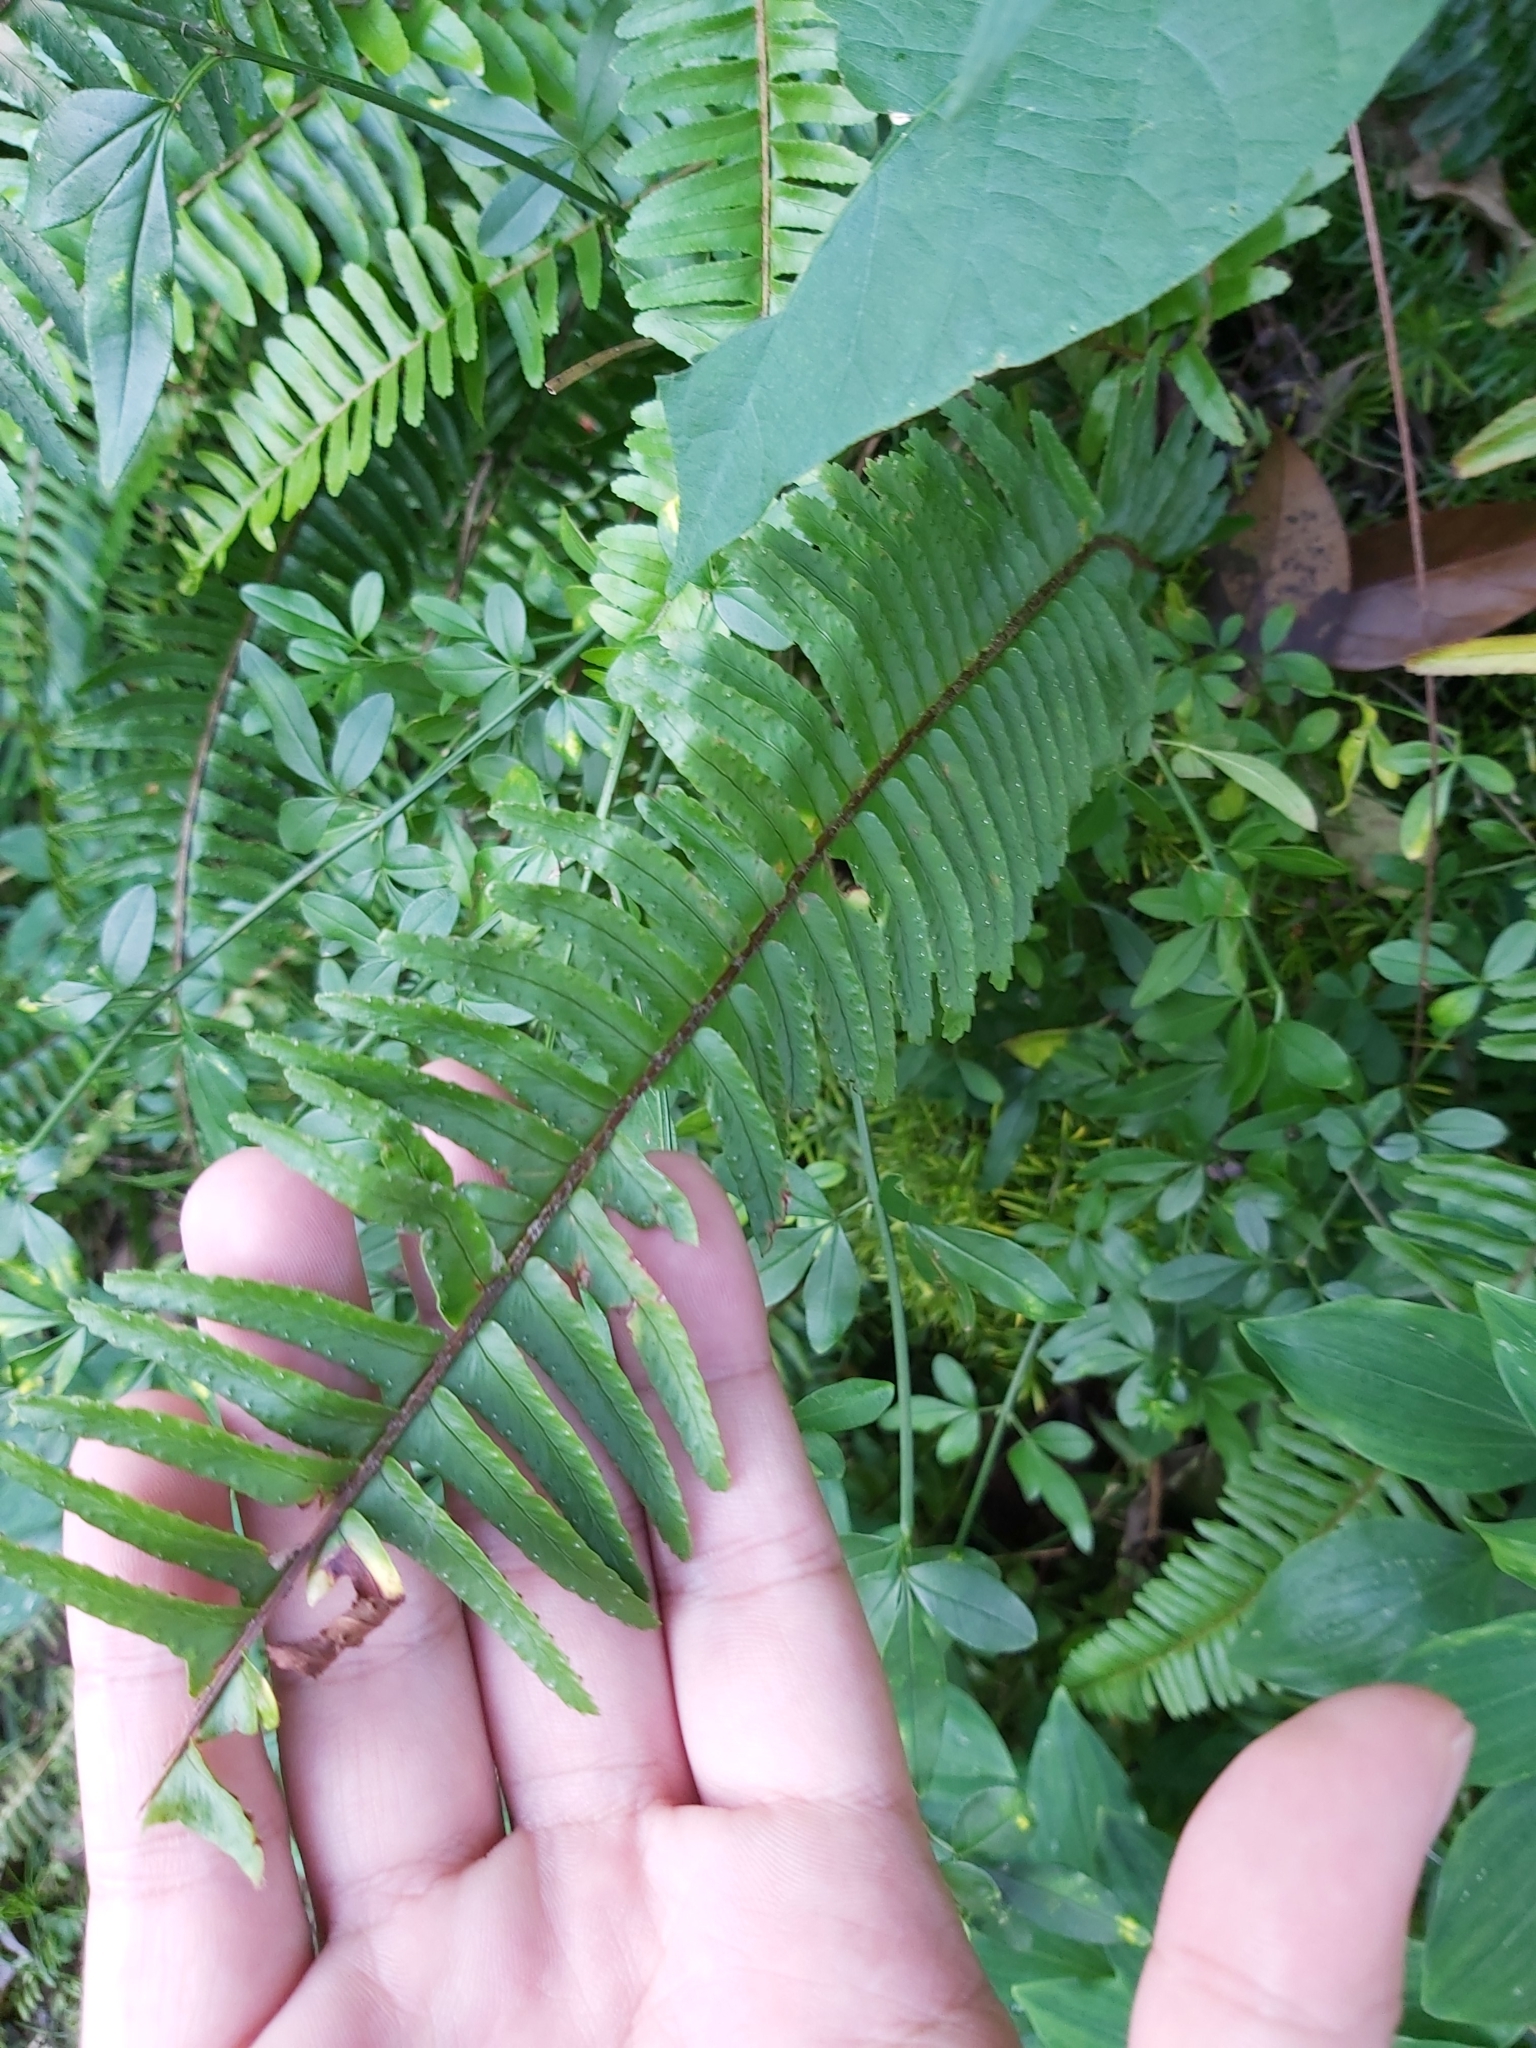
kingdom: Plantae
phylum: Tracheophyta
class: Polypodiopsida
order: Polypodiales
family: Nephrolepidaceae
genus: Nephrolepis
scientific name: Nephrolepis cordifolia
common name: Narrow swordfern
